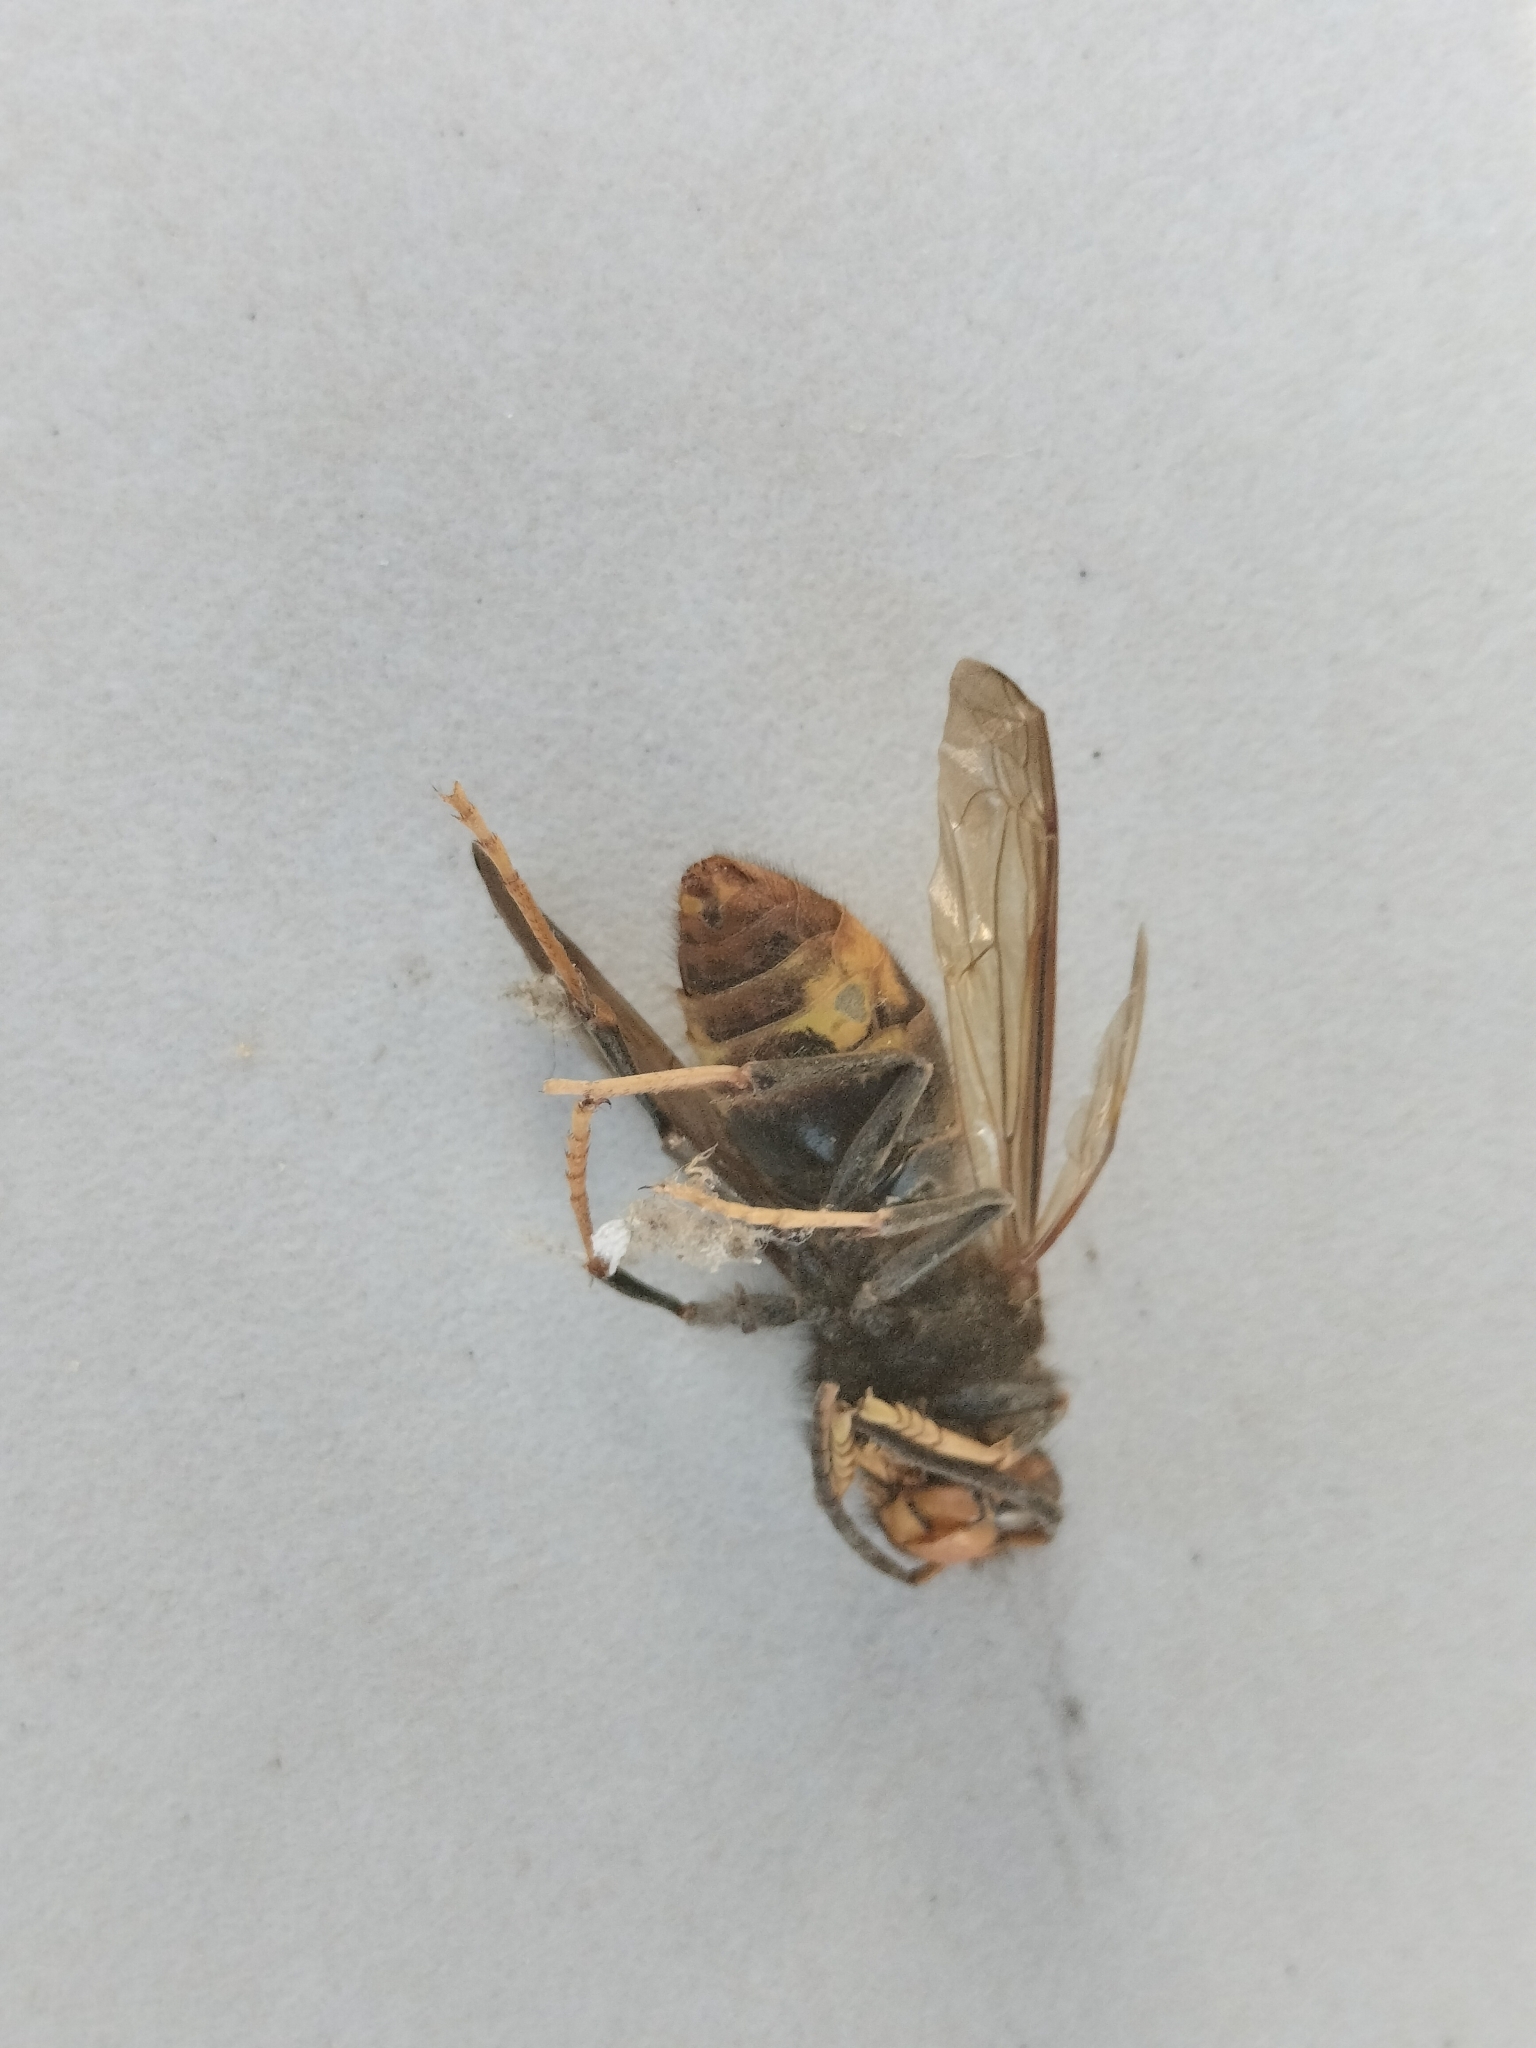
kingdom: Animalia
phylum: Arthropoda
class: Insecta
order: Hymenoptera
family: Vespidae
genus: Vespa
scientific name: Vespa velutina
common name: Asian hornet
